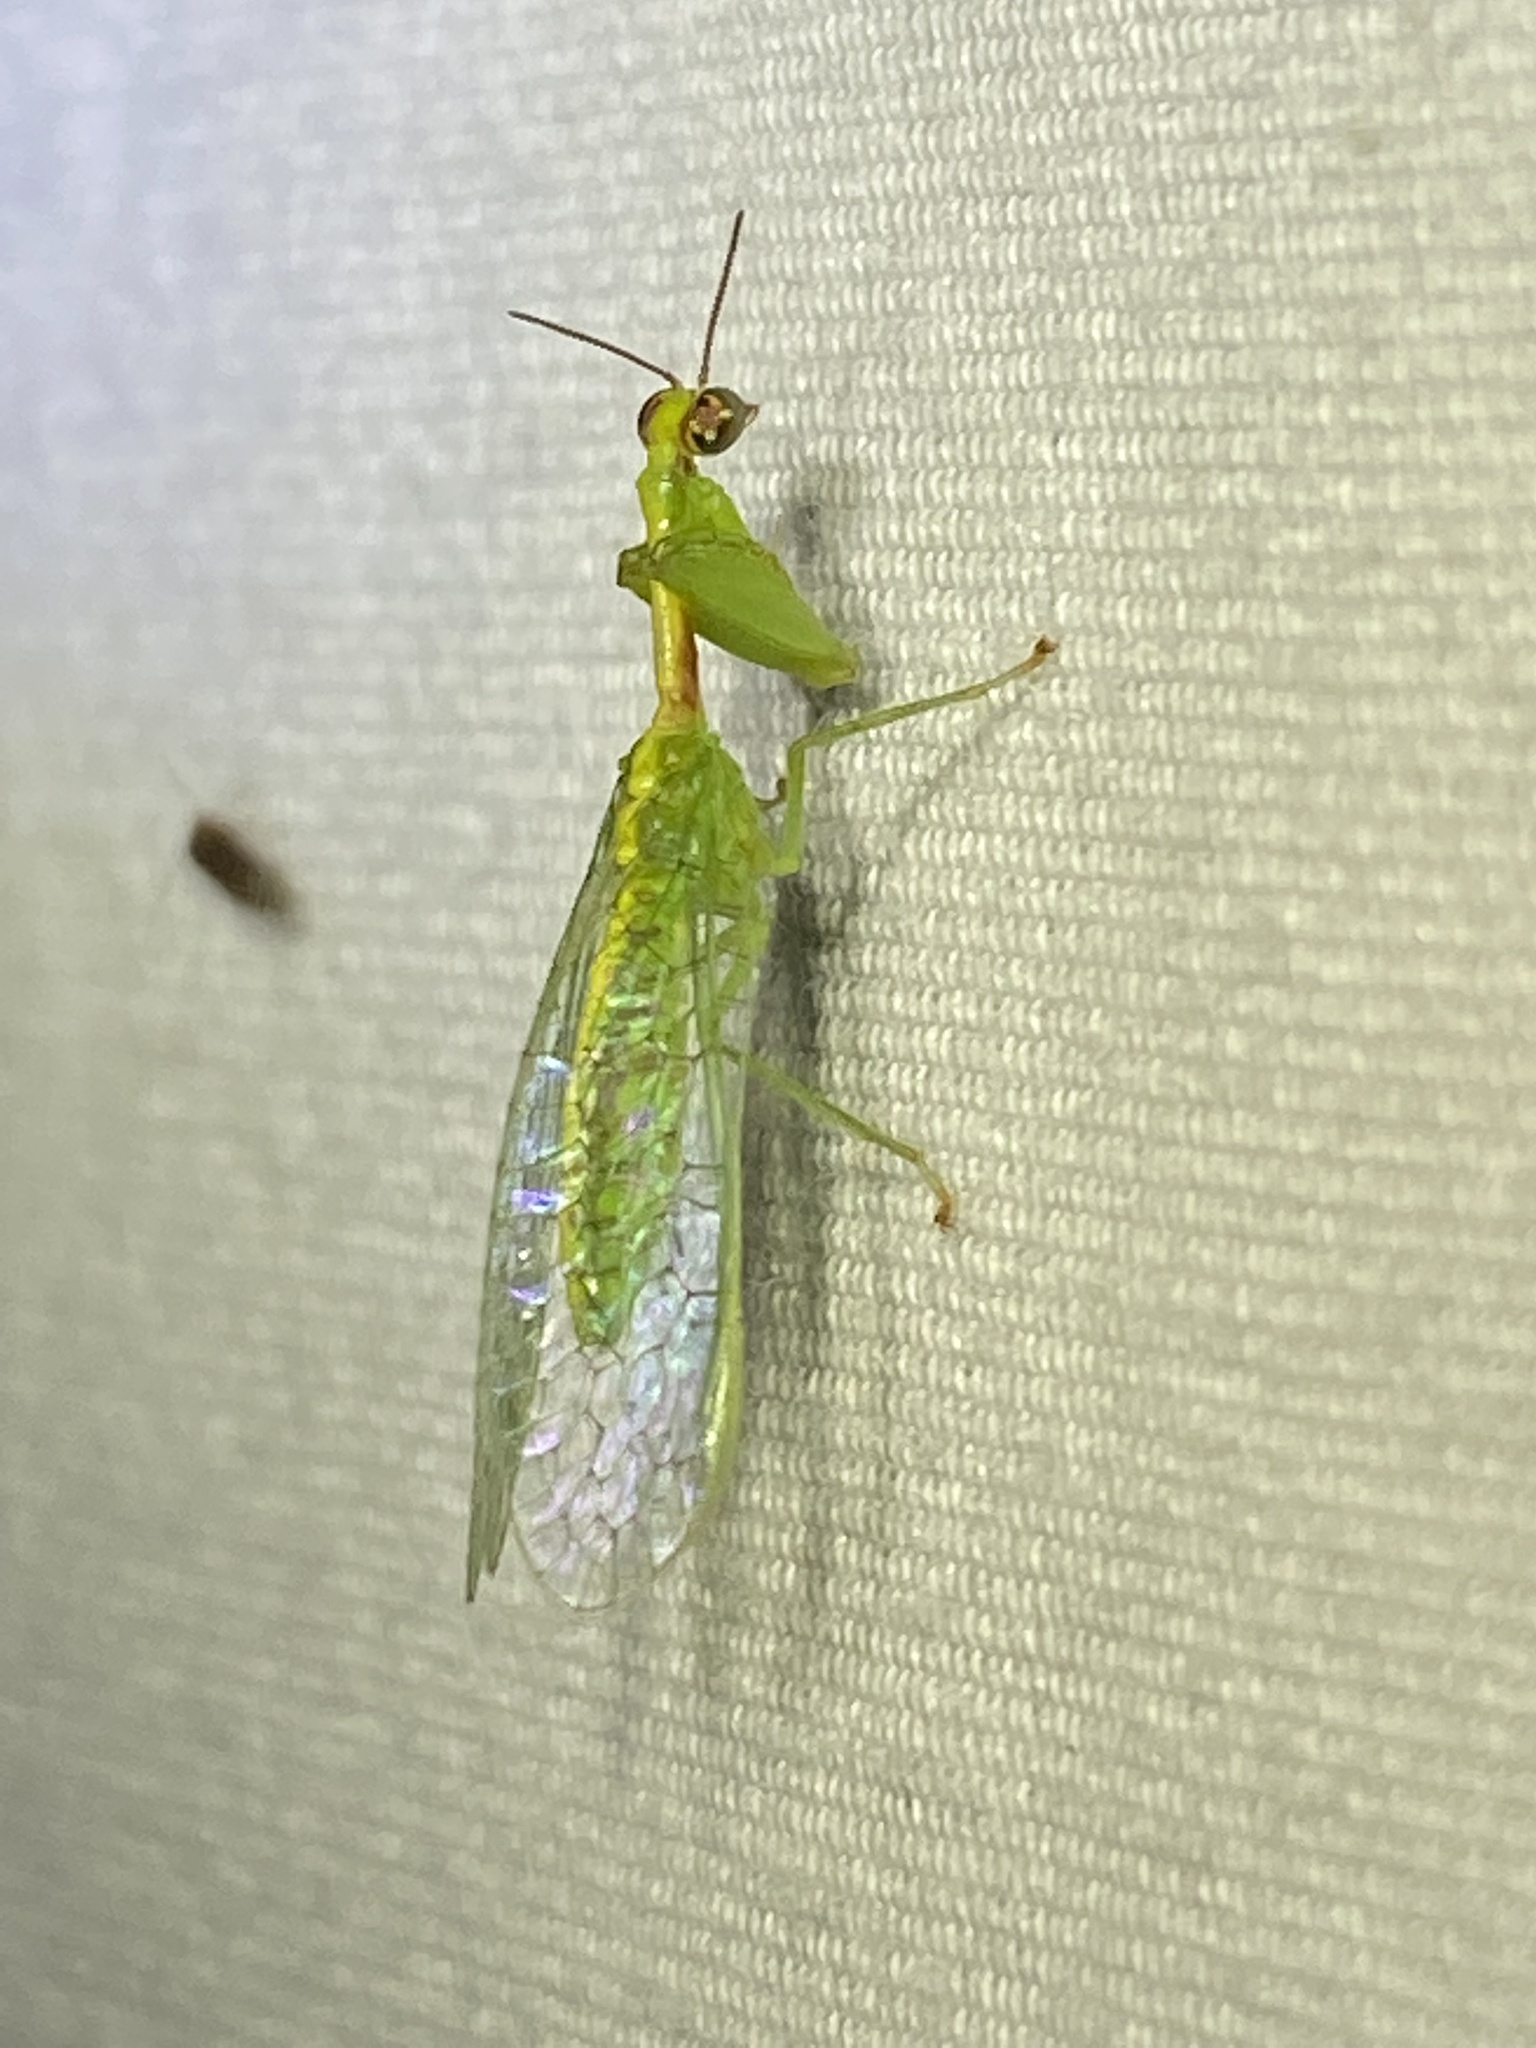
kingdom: Animalia
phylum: Arthropoda
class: Insecta
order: Neuroptera
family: Mantispidae
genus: Zeugomantispa
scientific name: Zeugomantispa minuta
